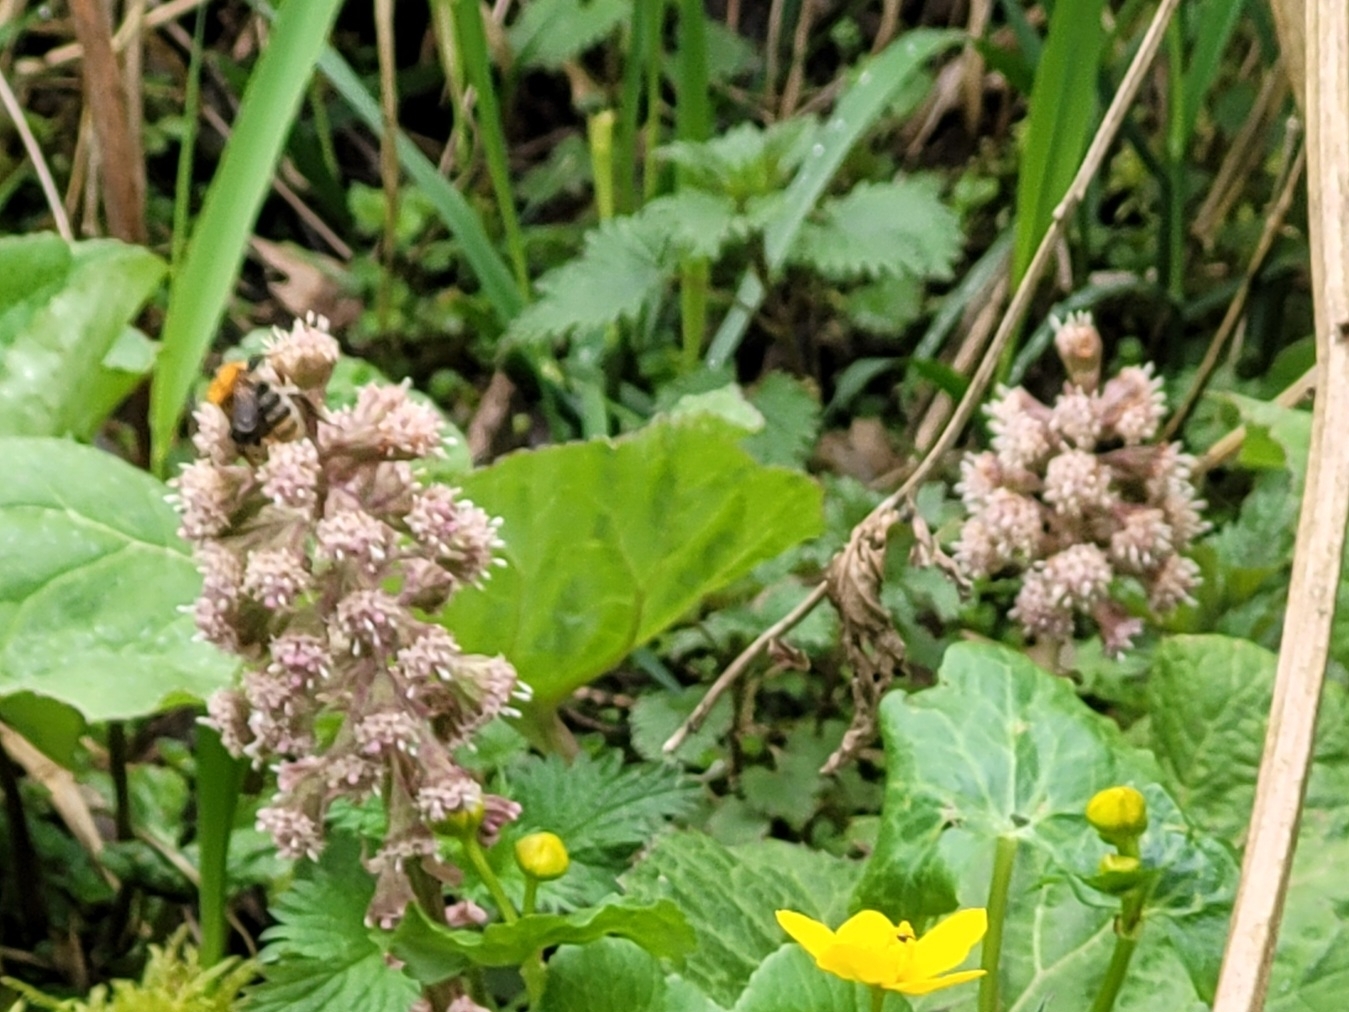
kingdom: Plantae
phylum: Tracheophyta
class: Magnoliopsida
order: Asterales
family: Asteraceae
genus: Petasites
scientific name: Petasites hybridus
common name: Butterbur
